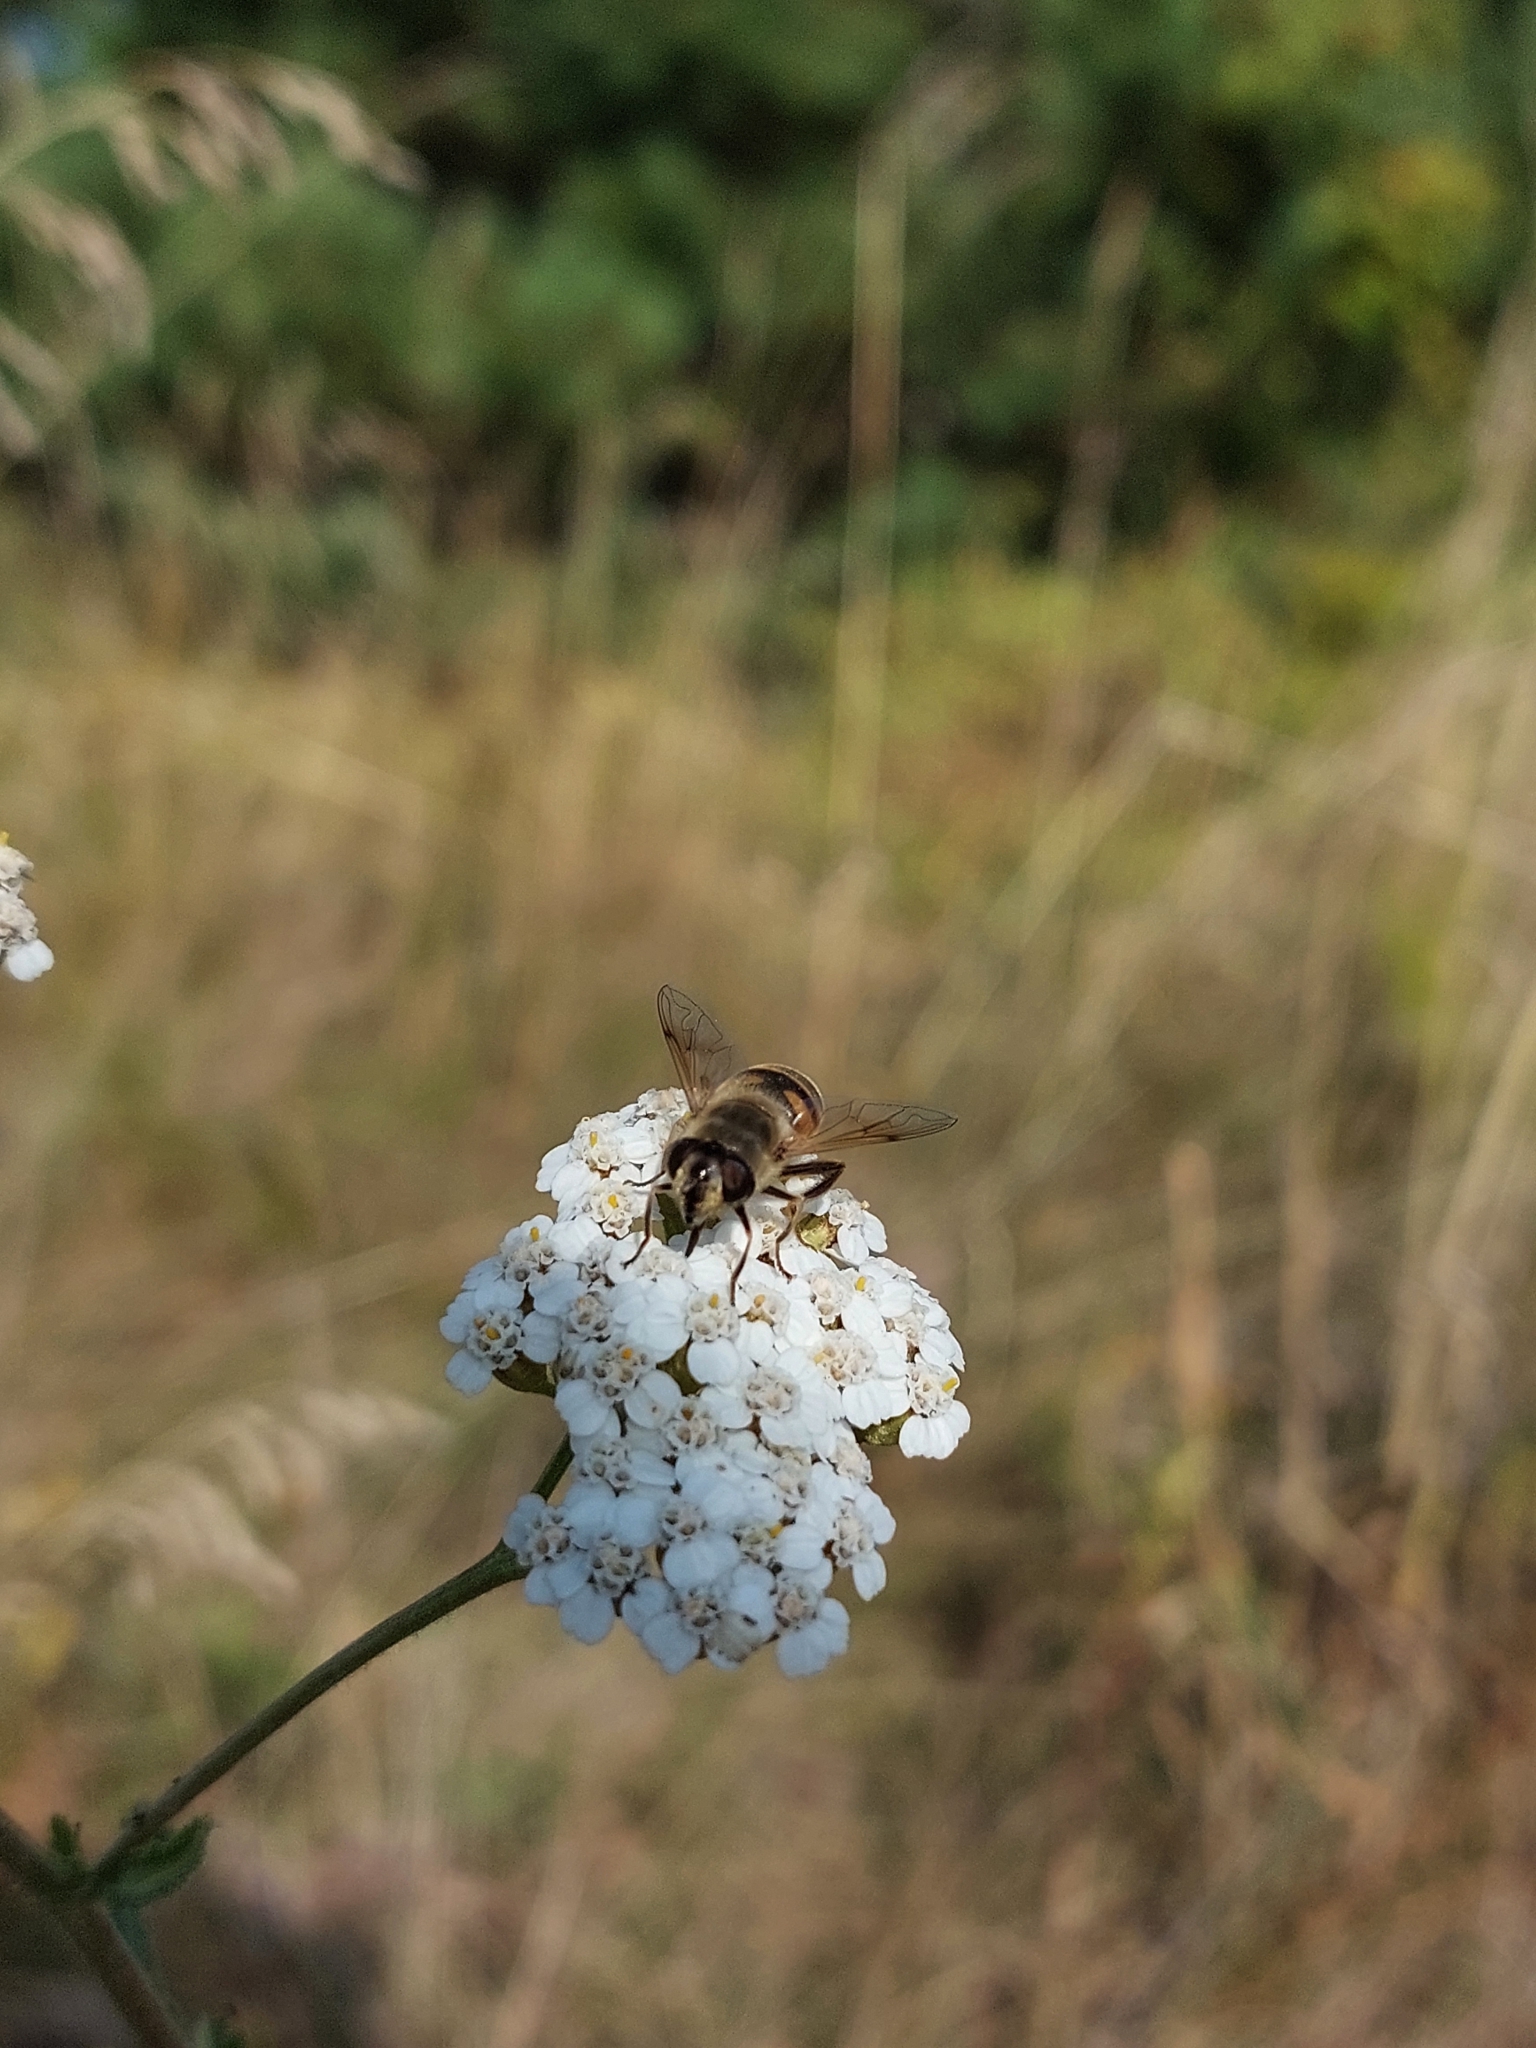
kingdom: Animalia
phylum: Arthropoda
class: Insecta
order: Diptera
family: Syrphidae
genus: Eristalis
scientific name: Eristalis tenax
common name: Drone fly
